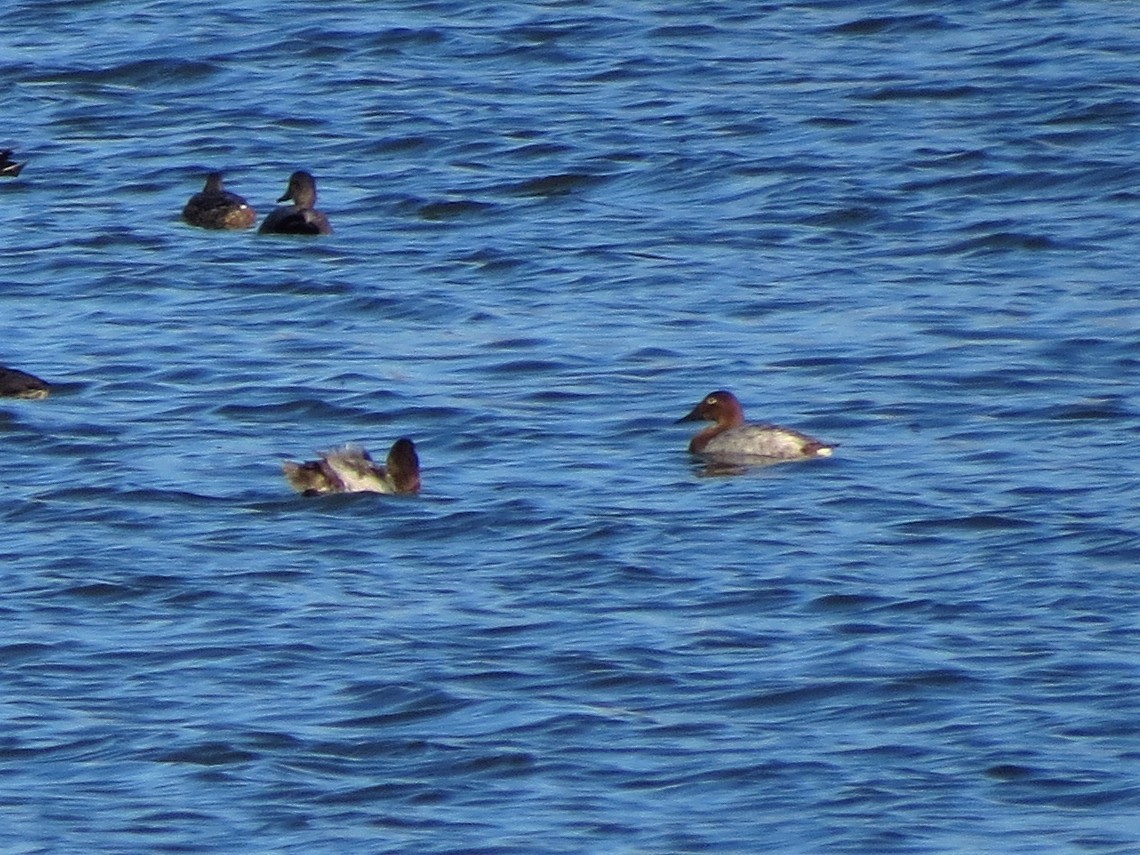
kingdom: Animalia
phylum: Chordata
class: Aves
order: Anseriformes
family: Anatidae
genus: Aythya
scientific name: Aythya valisineria
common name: Canvasback
